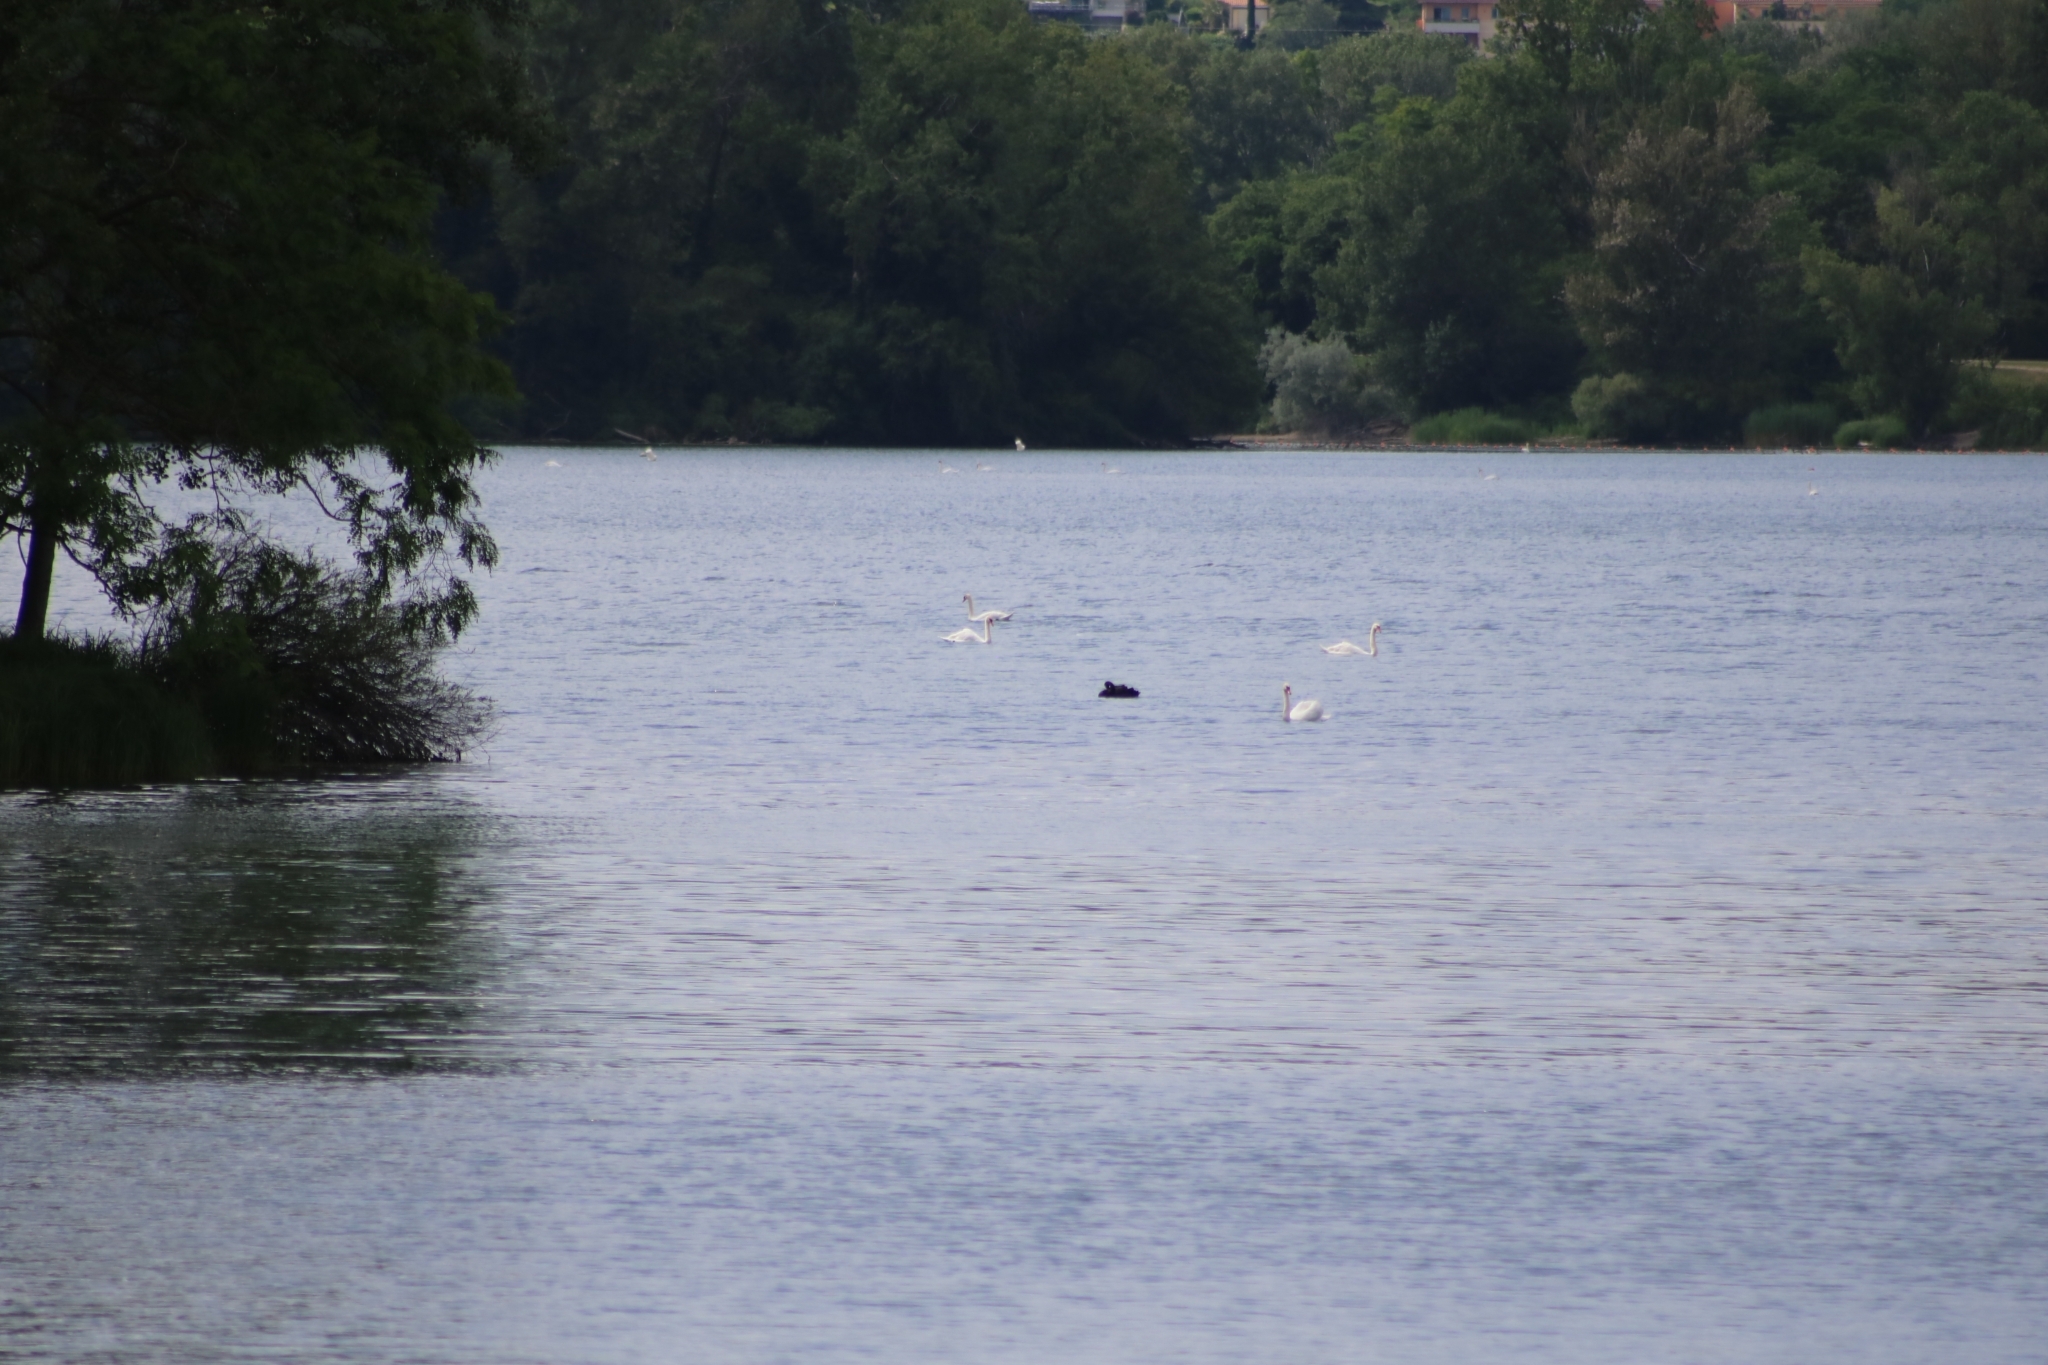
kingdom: Animalia
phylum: Chordata
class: Aves
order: Anseriformes
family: Anatidae
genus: Cygnus
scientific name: Cygnus atratus
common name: Black swan
